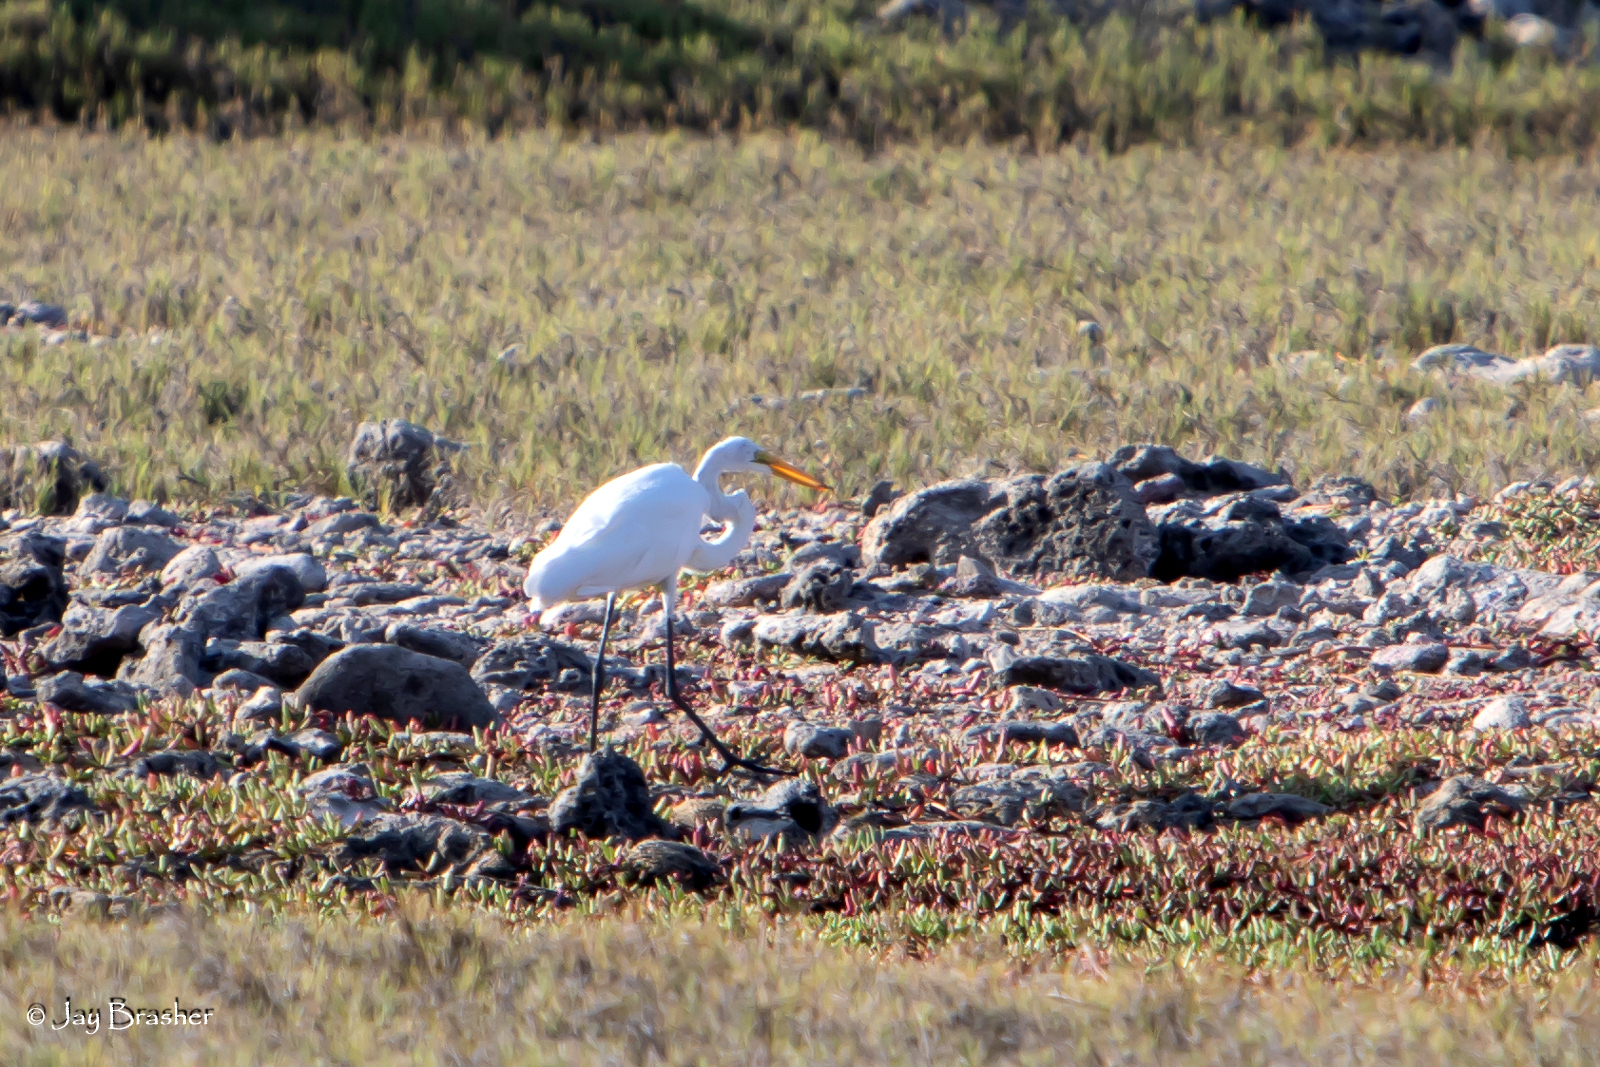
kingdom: Animalia
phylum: Chordata
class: Aves
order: Pelecaniformes
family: Ardeidae
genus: Ardea
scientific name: Ardea alba
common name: Great egret
